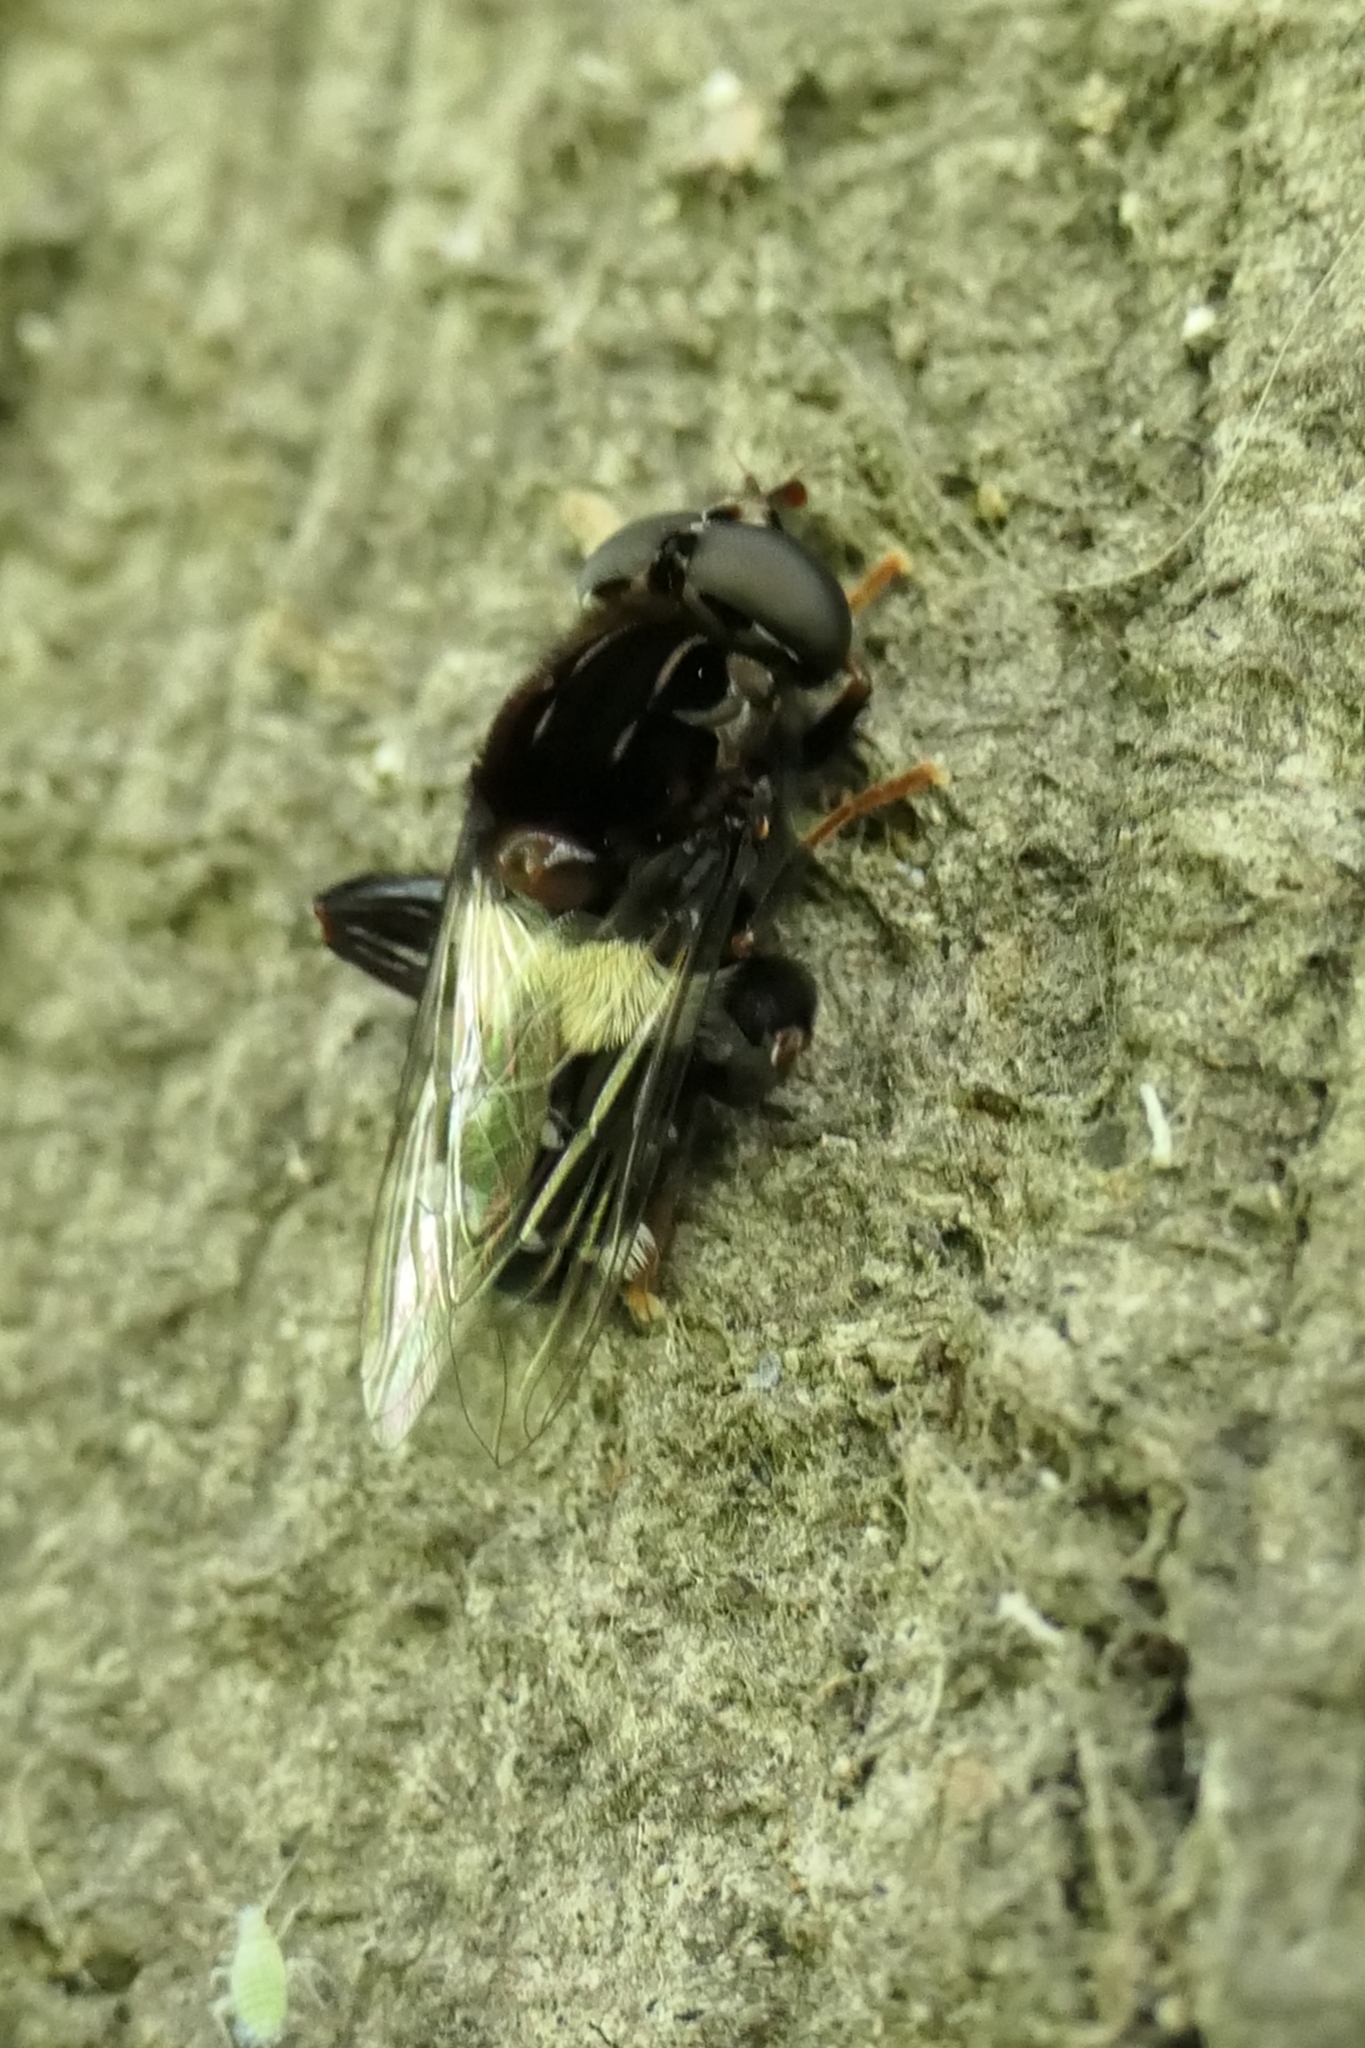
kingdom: Animalia
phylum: Arthropoda
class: Insecta
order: Diptera
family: Syrphidae
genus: Helophilus
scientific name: Helophilus cingulatus
